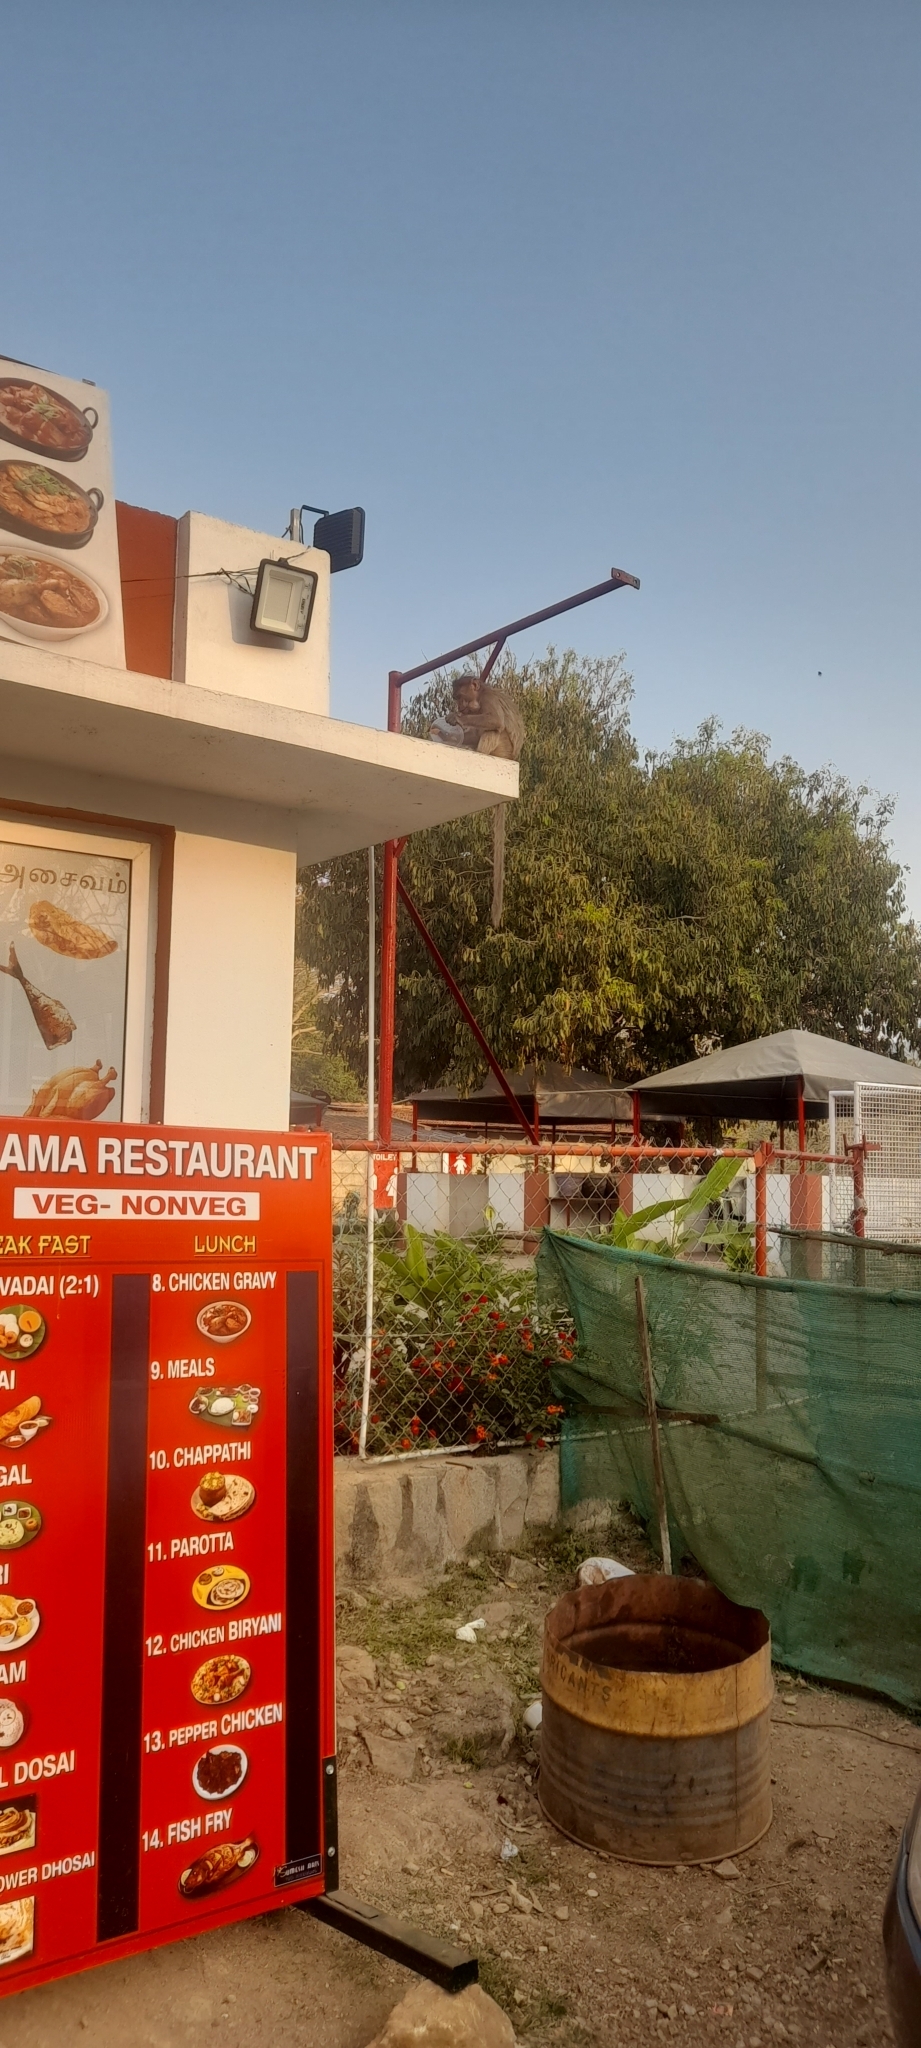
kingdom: Animalia
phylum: Chordata
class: Mammalia
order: Primates
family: Cercopithecidae
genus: Macaca
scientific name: Macaca radiata
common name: Bonnet macaque
